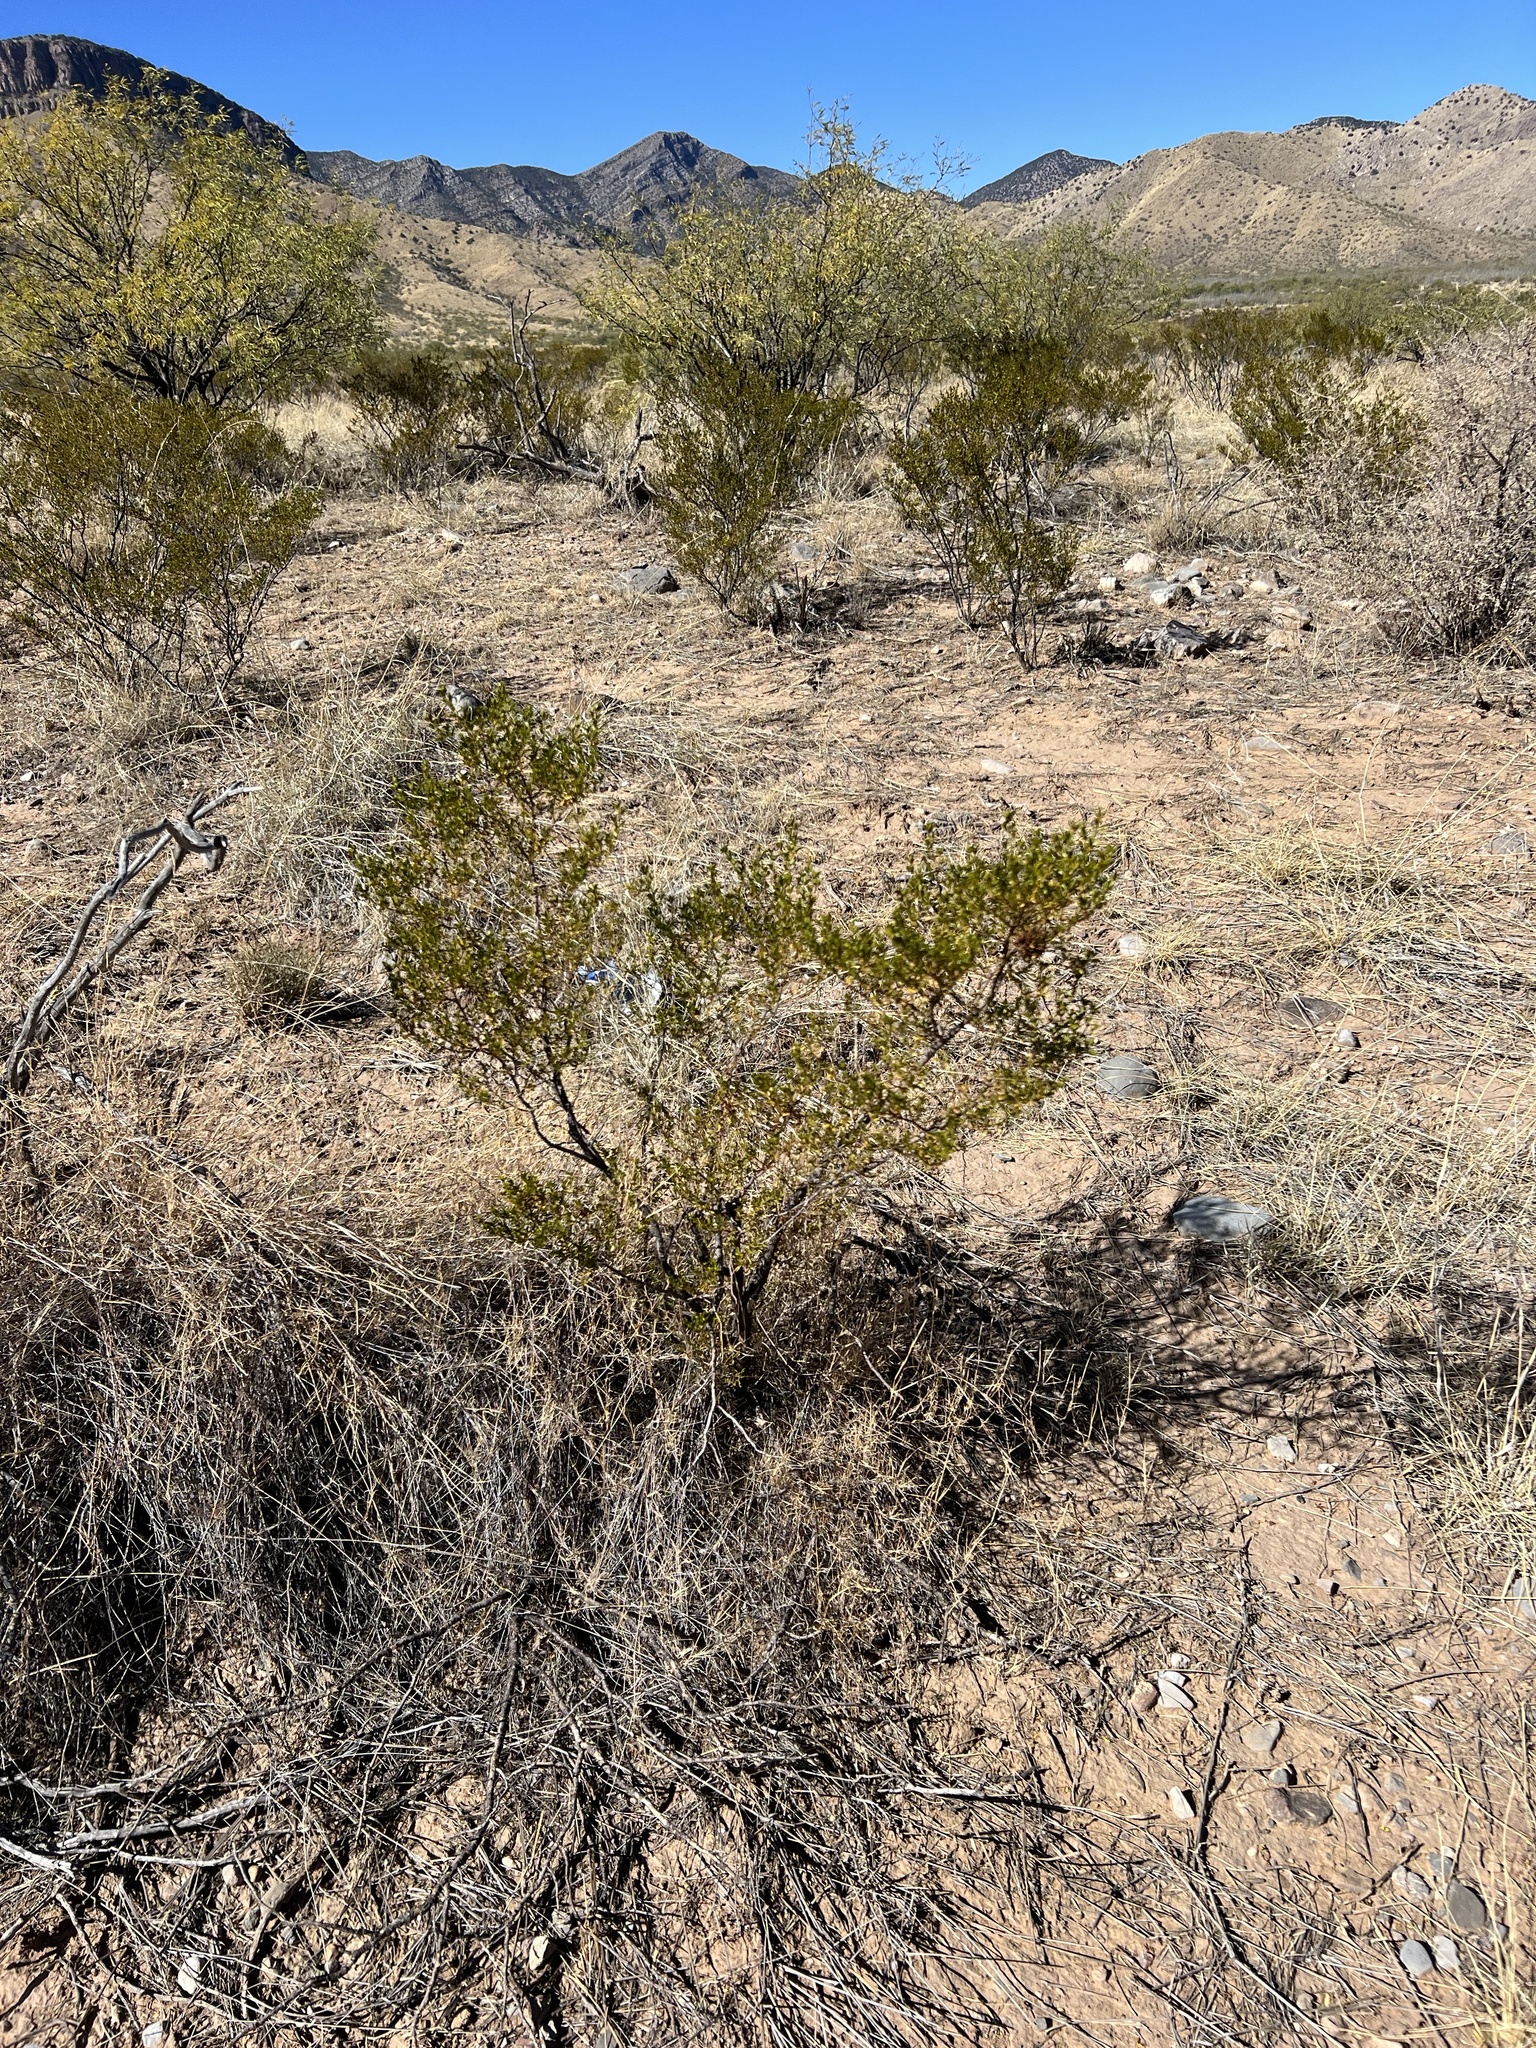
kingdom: Plantae
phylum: Tracheophyta
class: Magnoliopsida
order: Zygophyllales
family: Zygophyllaceae
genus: Larrea
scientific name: Larrea tridentata
